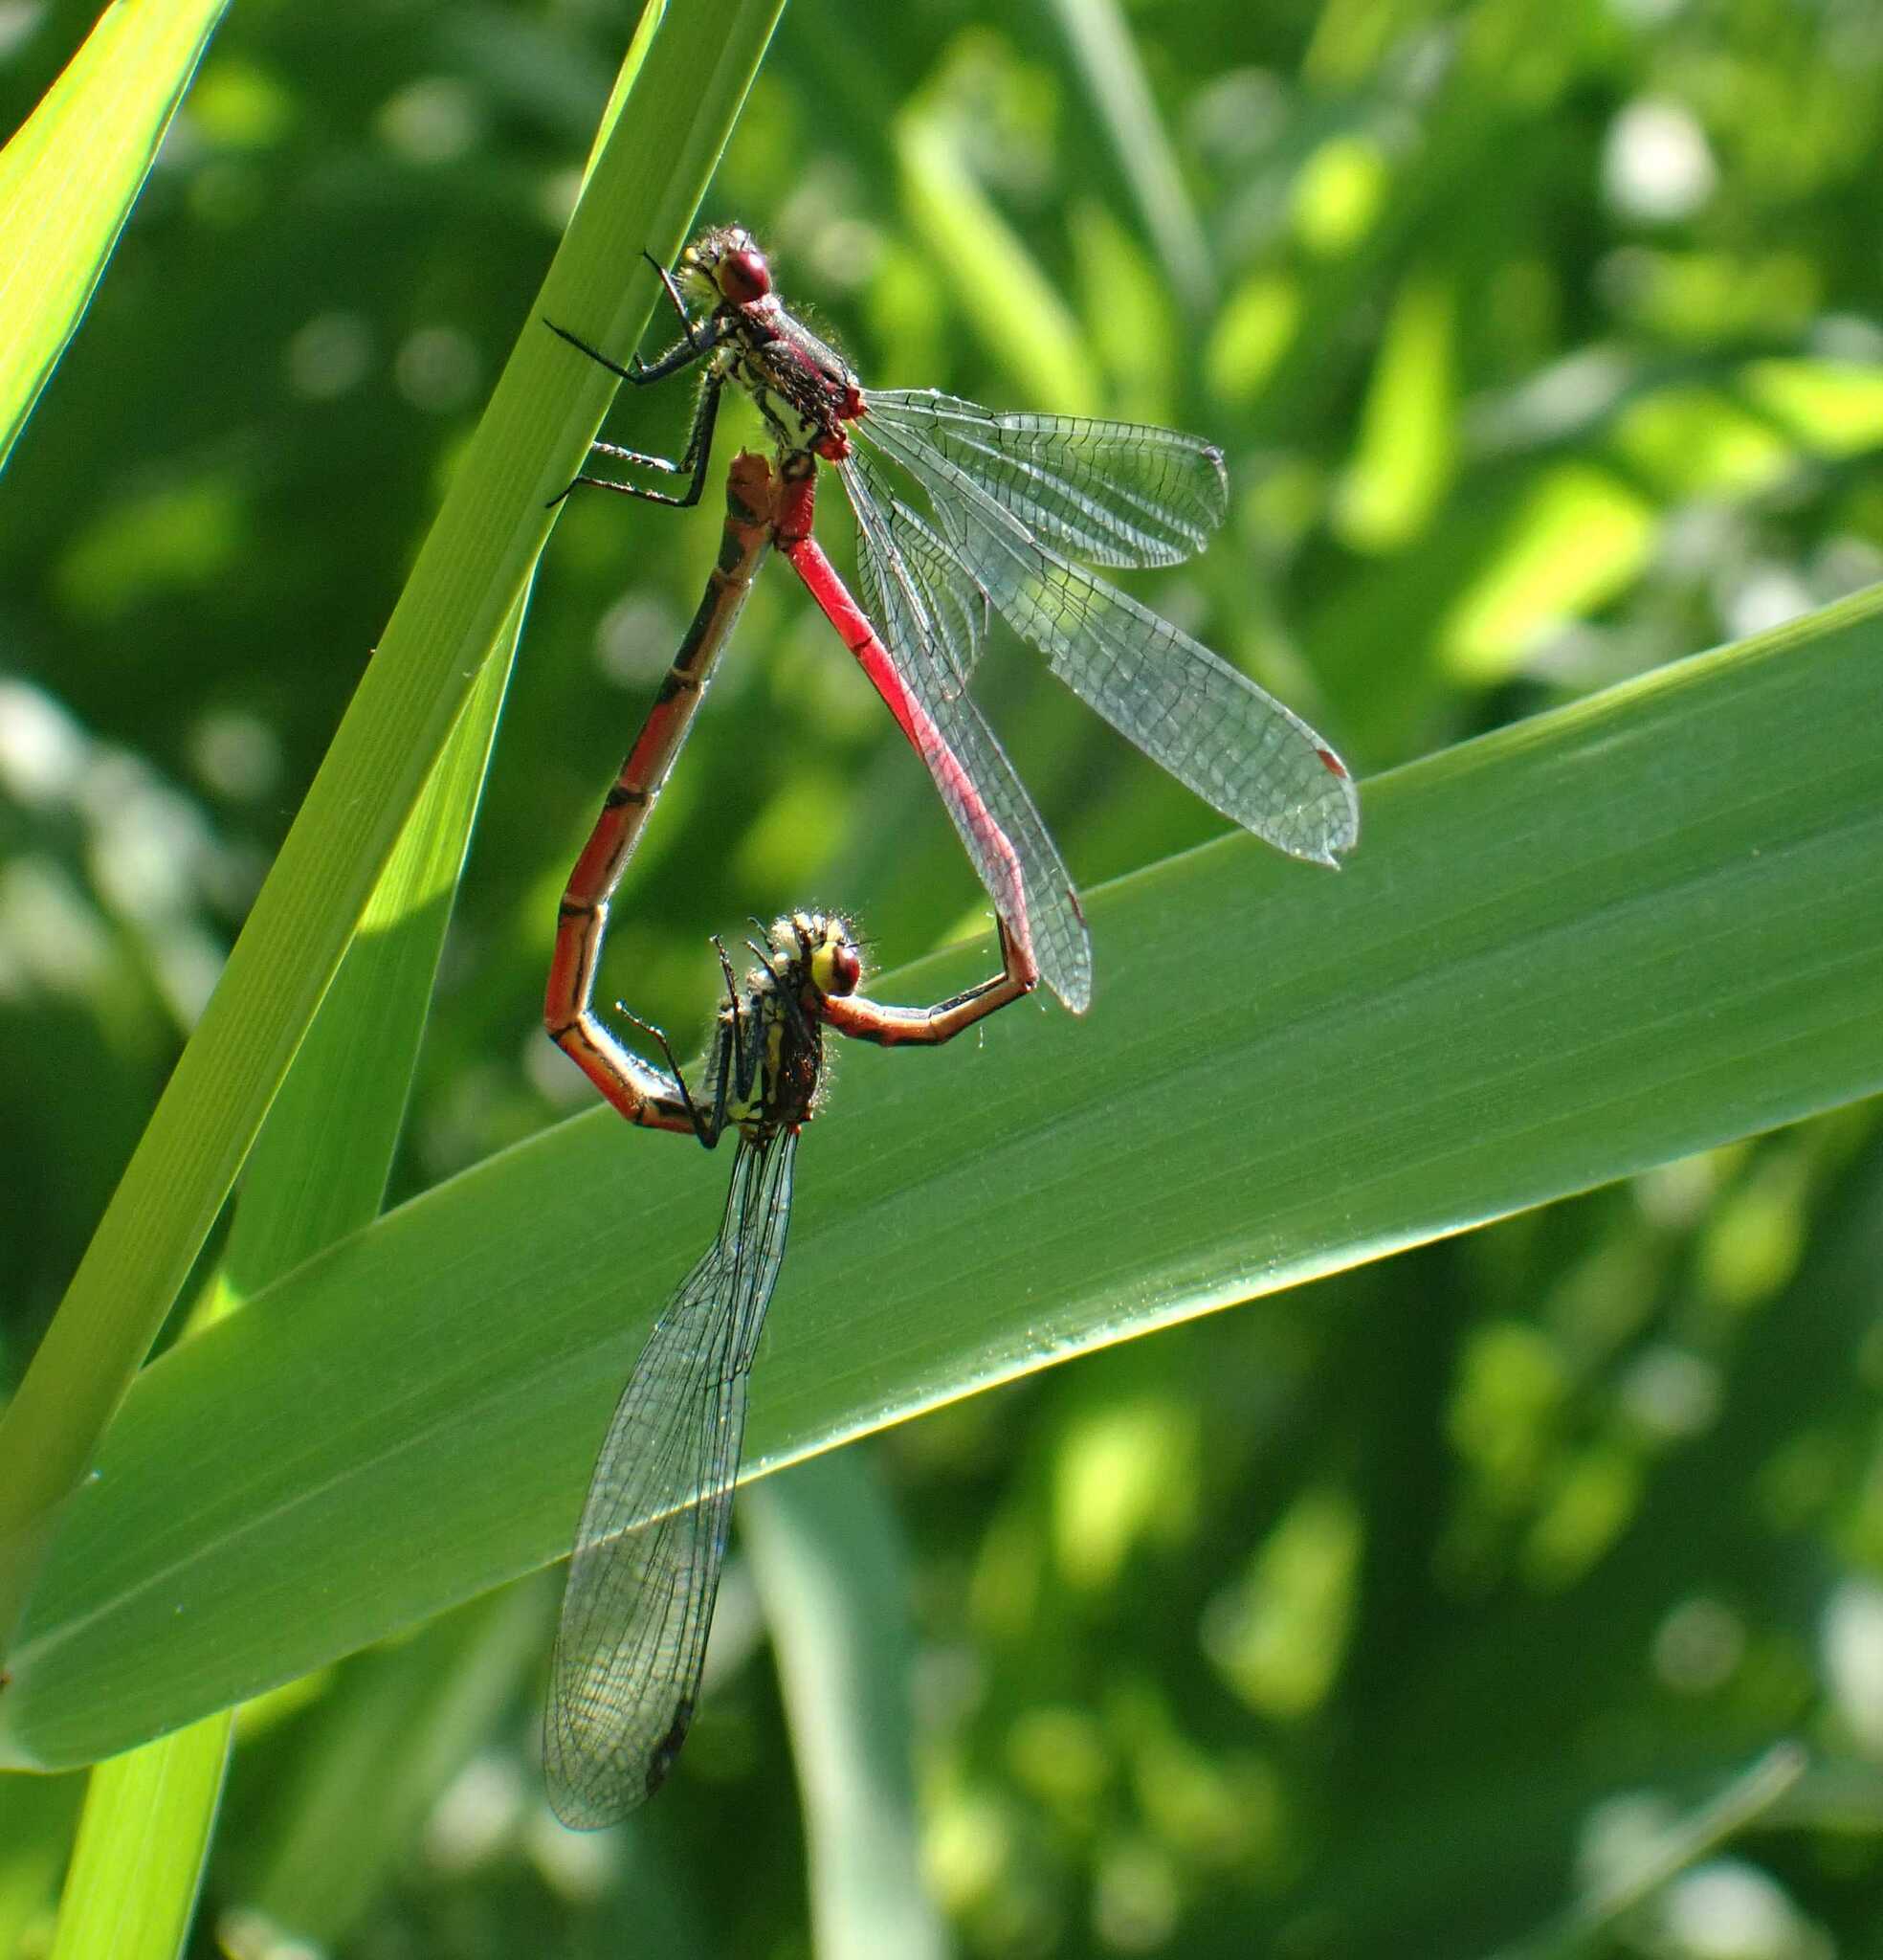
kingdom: Animalia
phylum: Arthropoda
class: Insecta
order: Odonata
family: Coenagrionidae
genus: Pyrrhosoma
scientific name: Pyrrhosoma nymphula
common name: Large red damsel
